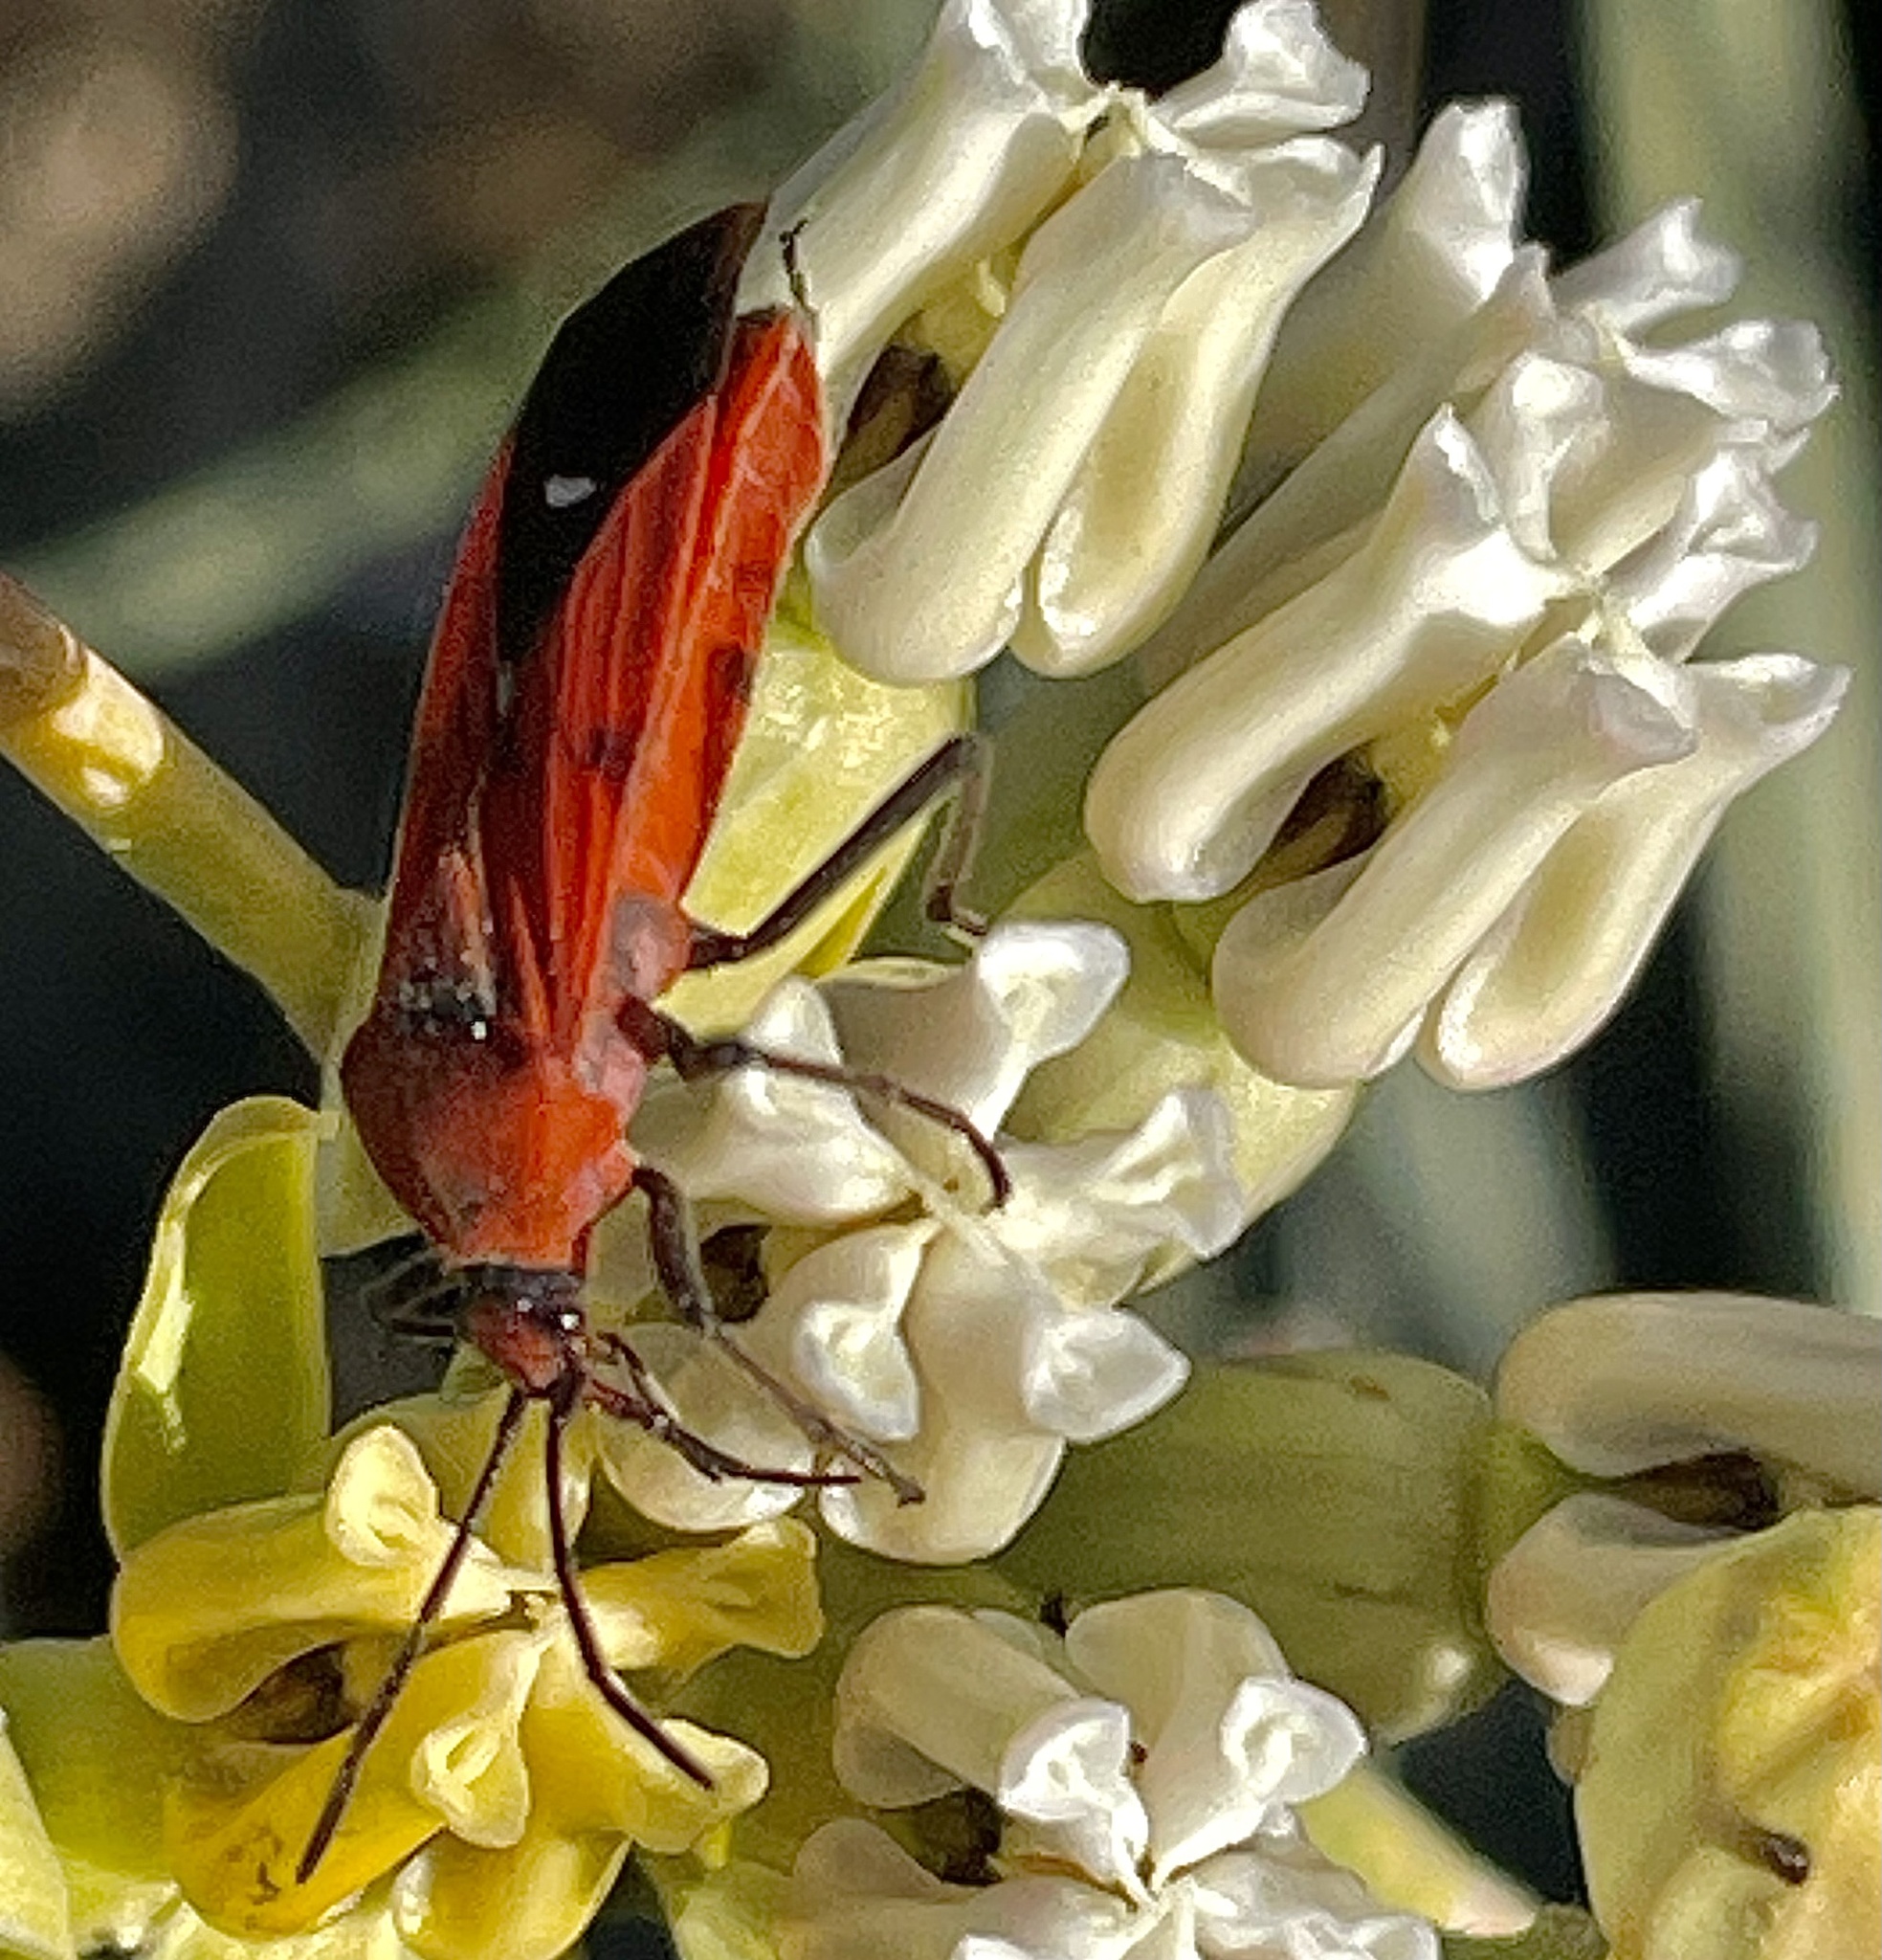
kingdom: Animalia
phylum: Arthropoda
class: Insecta
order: Hemiptera
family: Lygaeidae
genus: Oncopeltus
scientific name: Oncopeltus sanguinolentus
